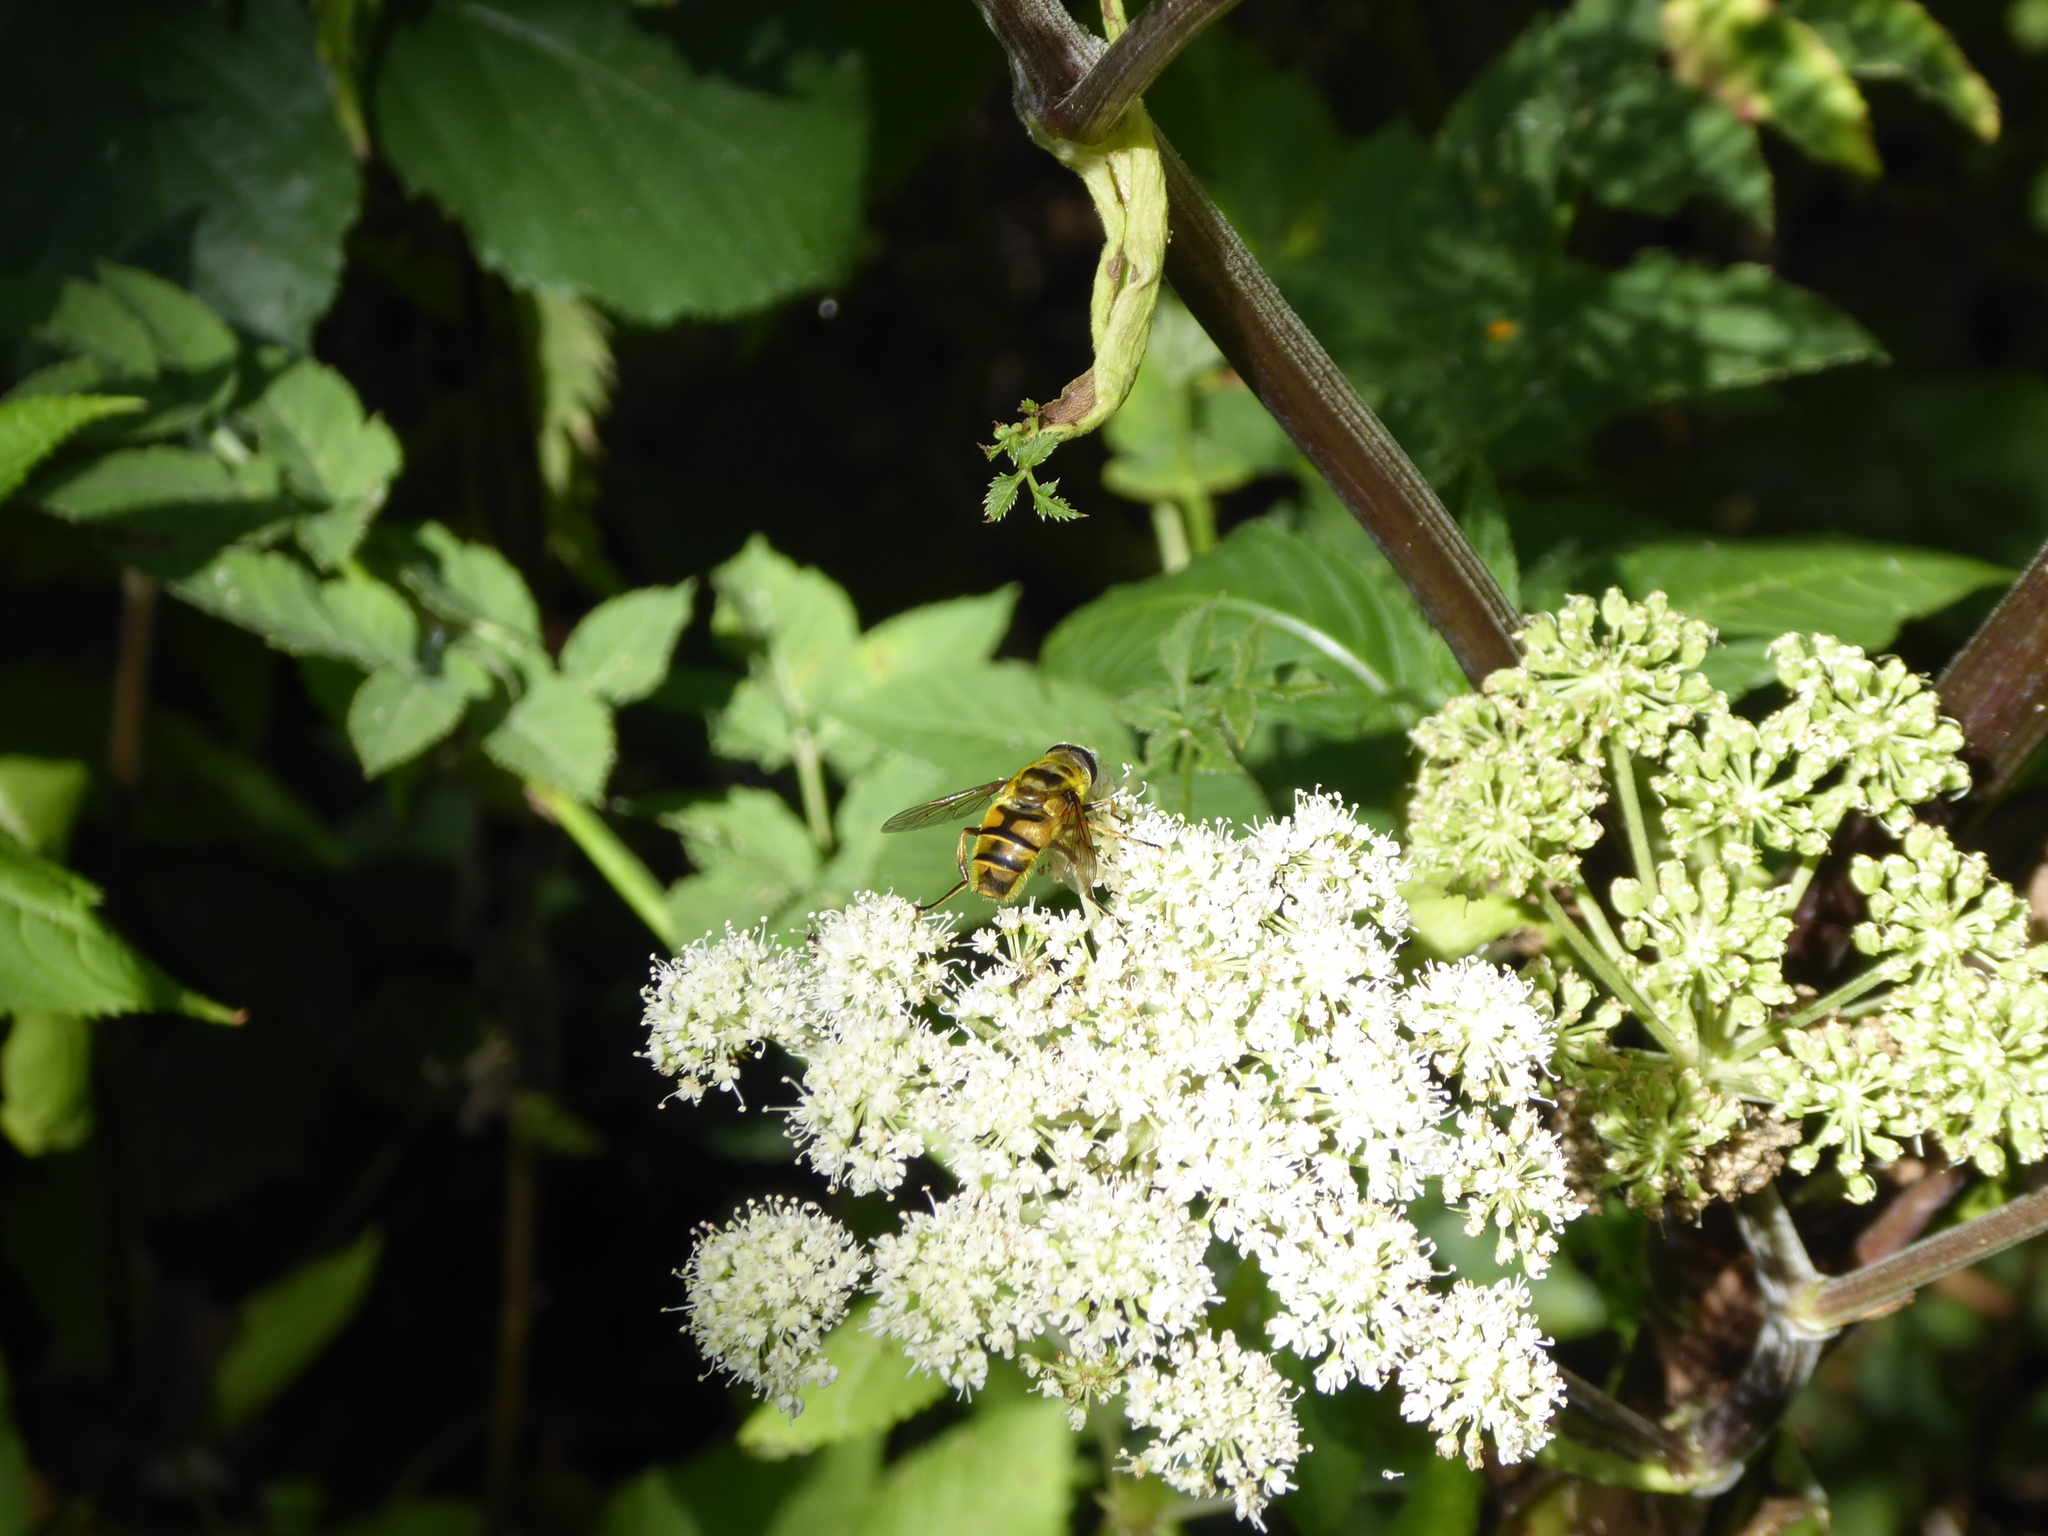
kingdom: Animalia
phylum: Arthropoda
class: Insecta
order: Diptera
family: Syrphidae
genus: Myathropa
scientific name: Myathropa florea
